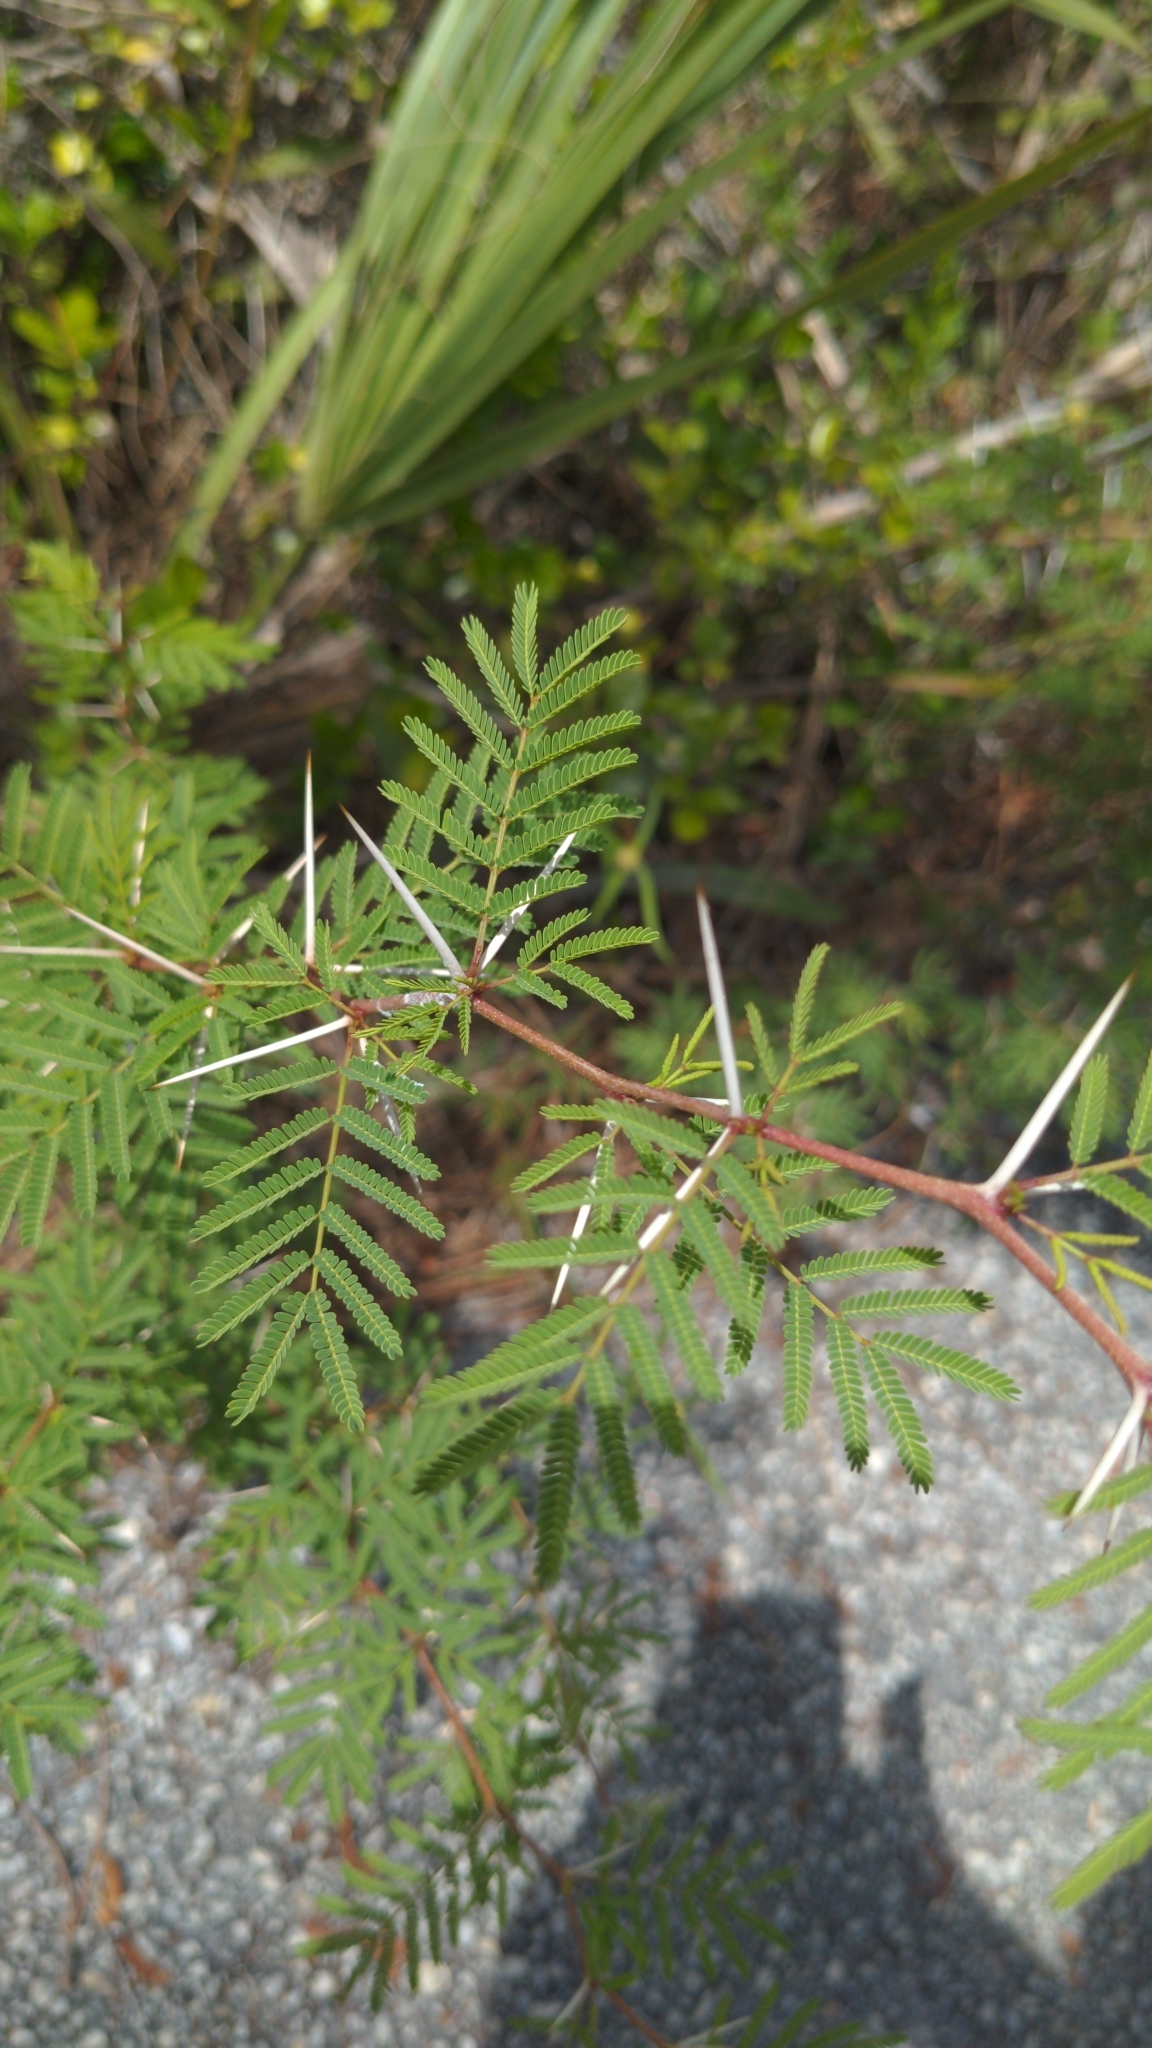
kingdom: Plantae
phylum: Tracheophyta
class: Magnoliopsida
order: Fabales
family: Fabaceae
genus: Vachellia
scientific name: Vachellia farnesiana
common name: Sweet acacia
